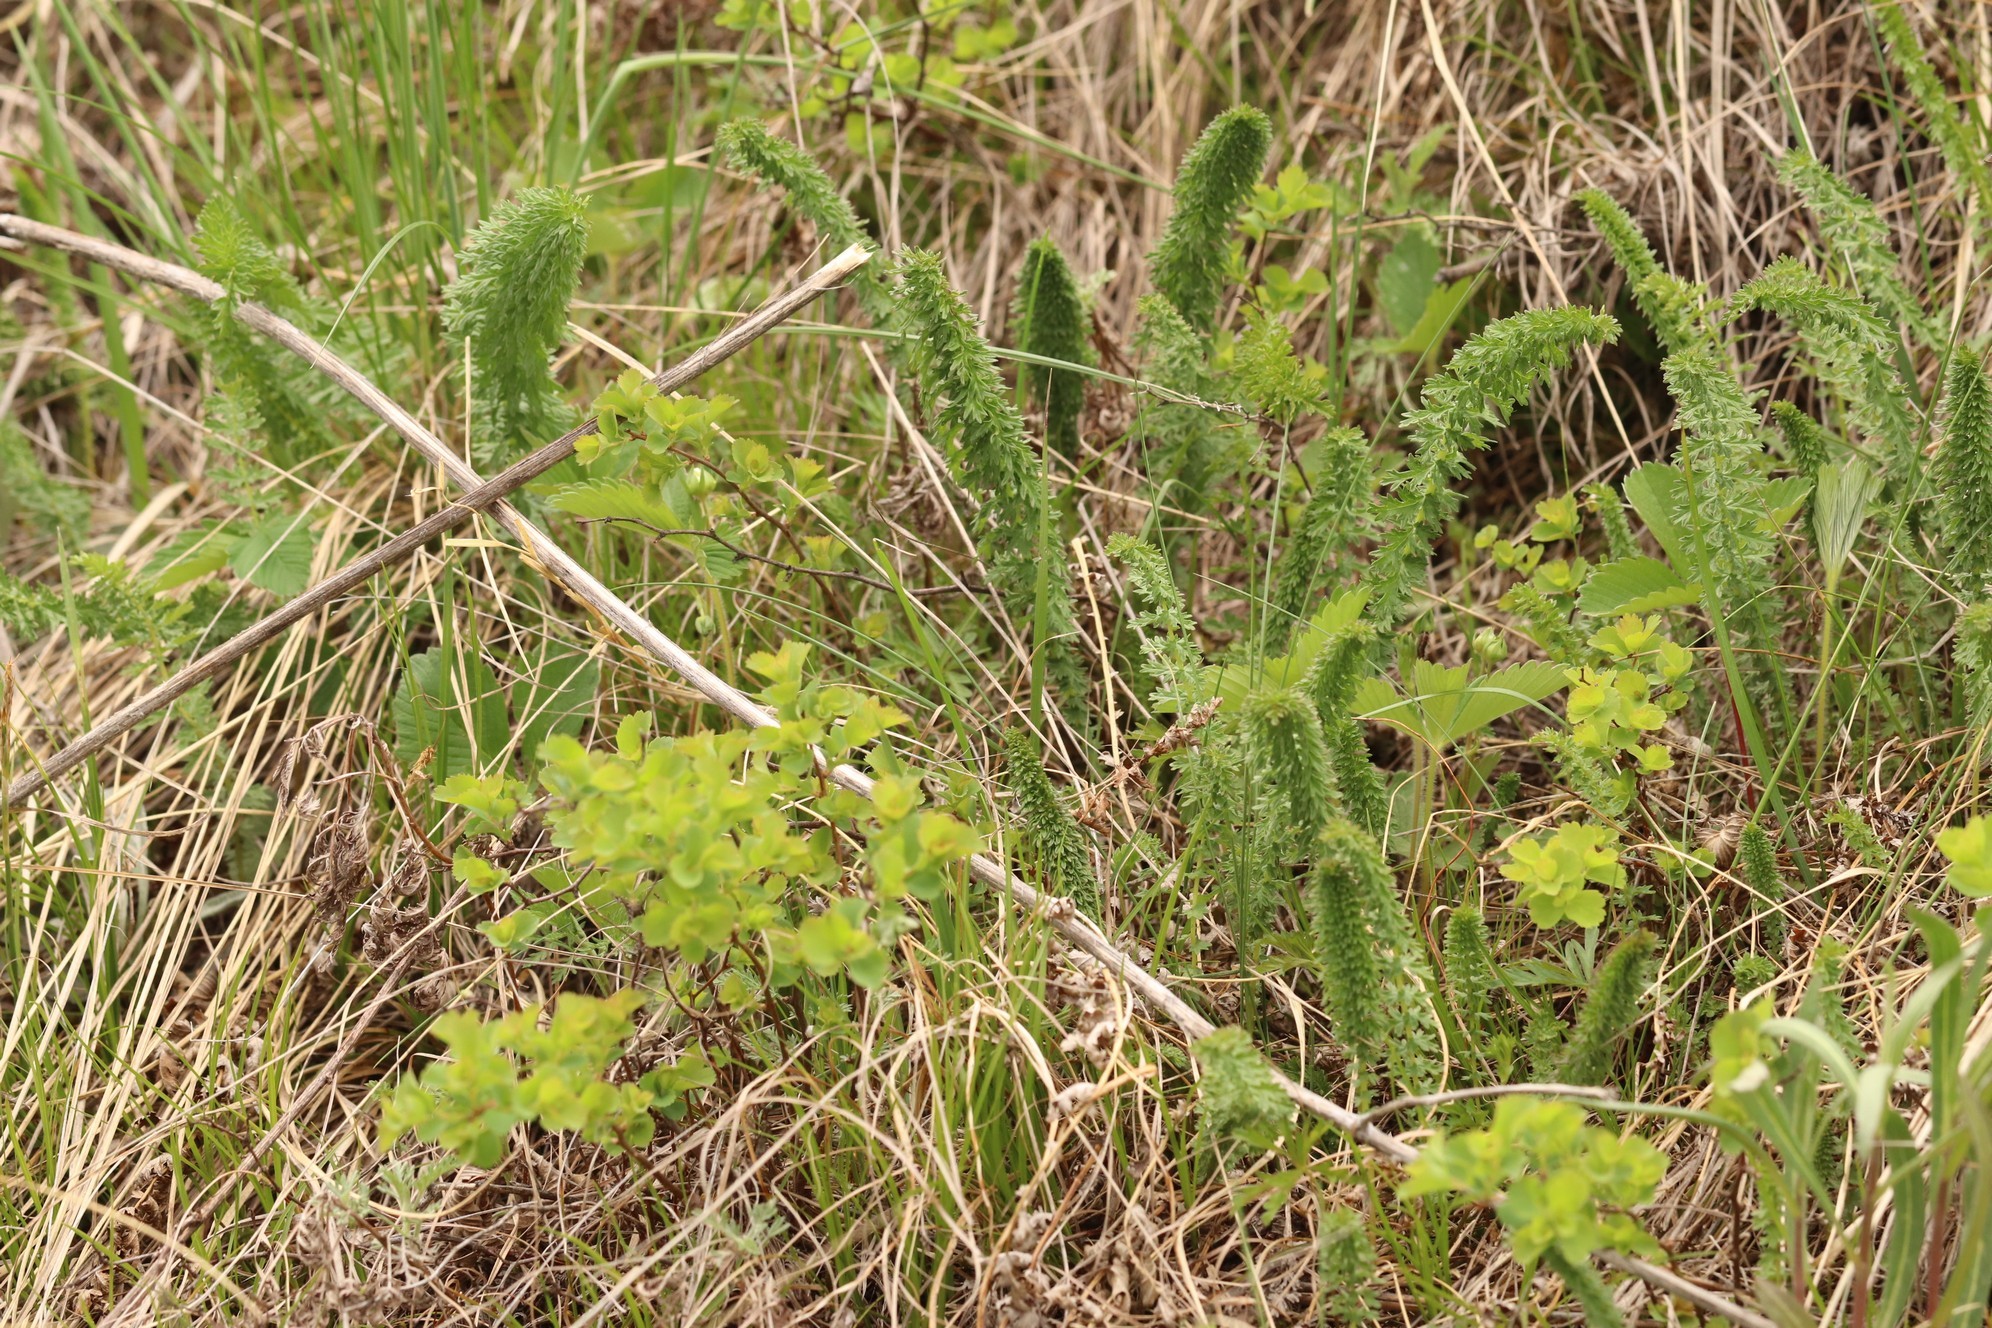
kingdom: Plantae
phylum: Tracheophyta
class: Magnoliopsida
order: Rosales
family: Rosaceae
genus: Filipendula
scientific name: Filipendula vulgaris
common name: Dropwort
